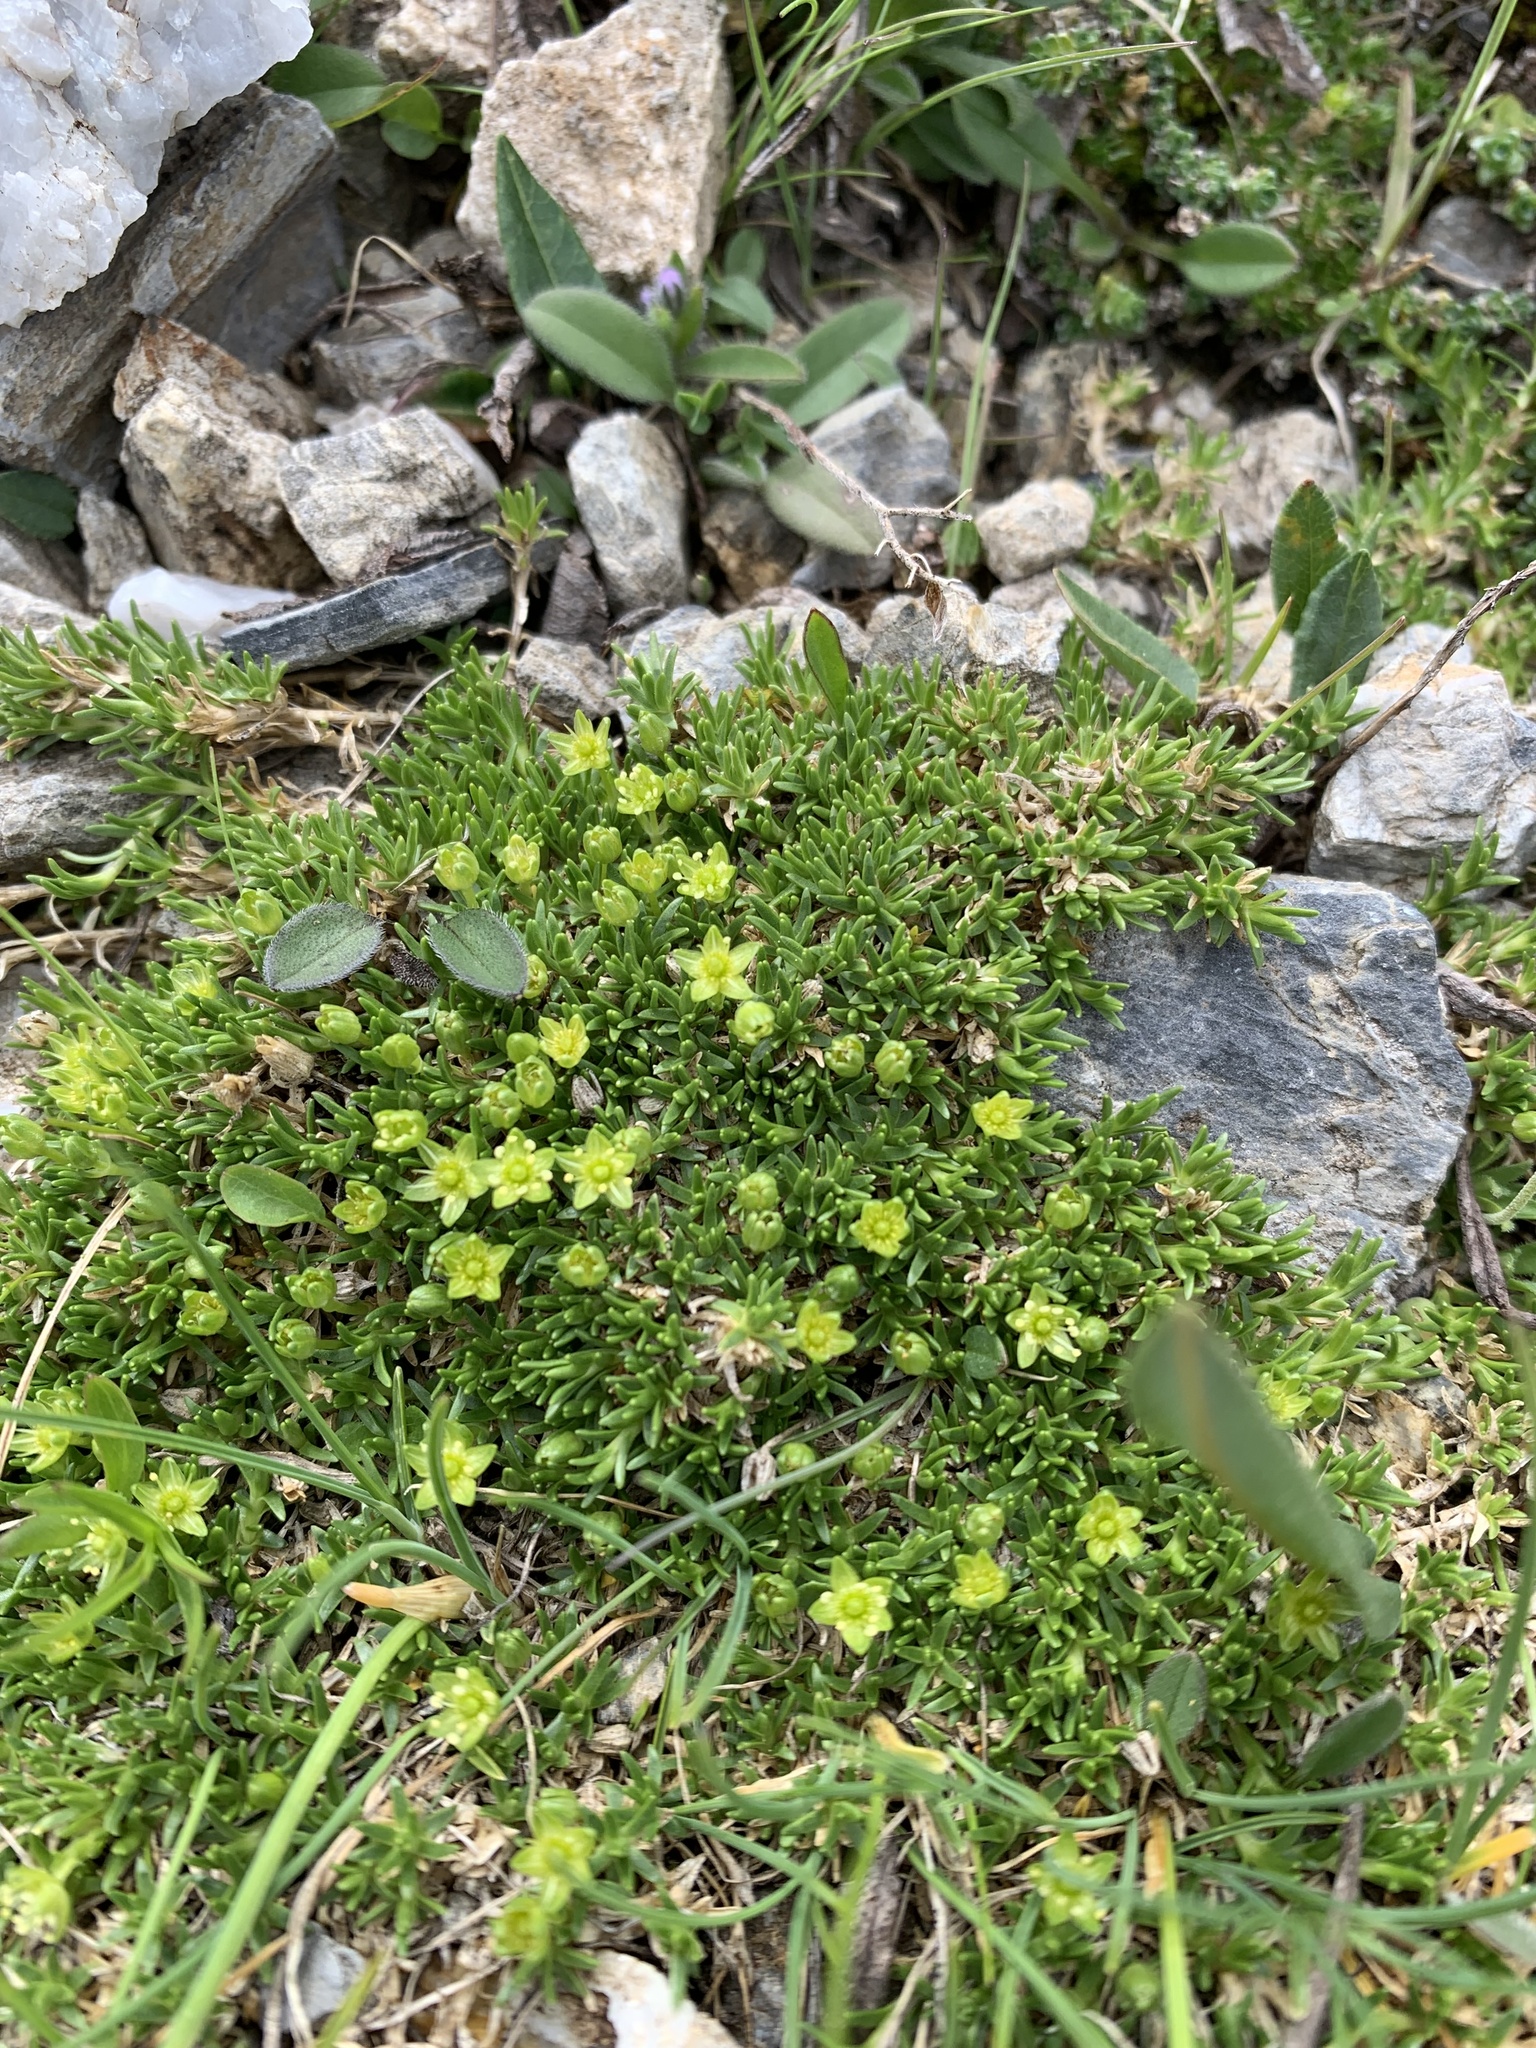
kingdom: Plantae
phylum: Tracheophyta
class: Magnoliopsida
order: Caryophyllales
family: Caryophyllaceae
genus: Cherleria
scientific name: Cherleria sedoides
